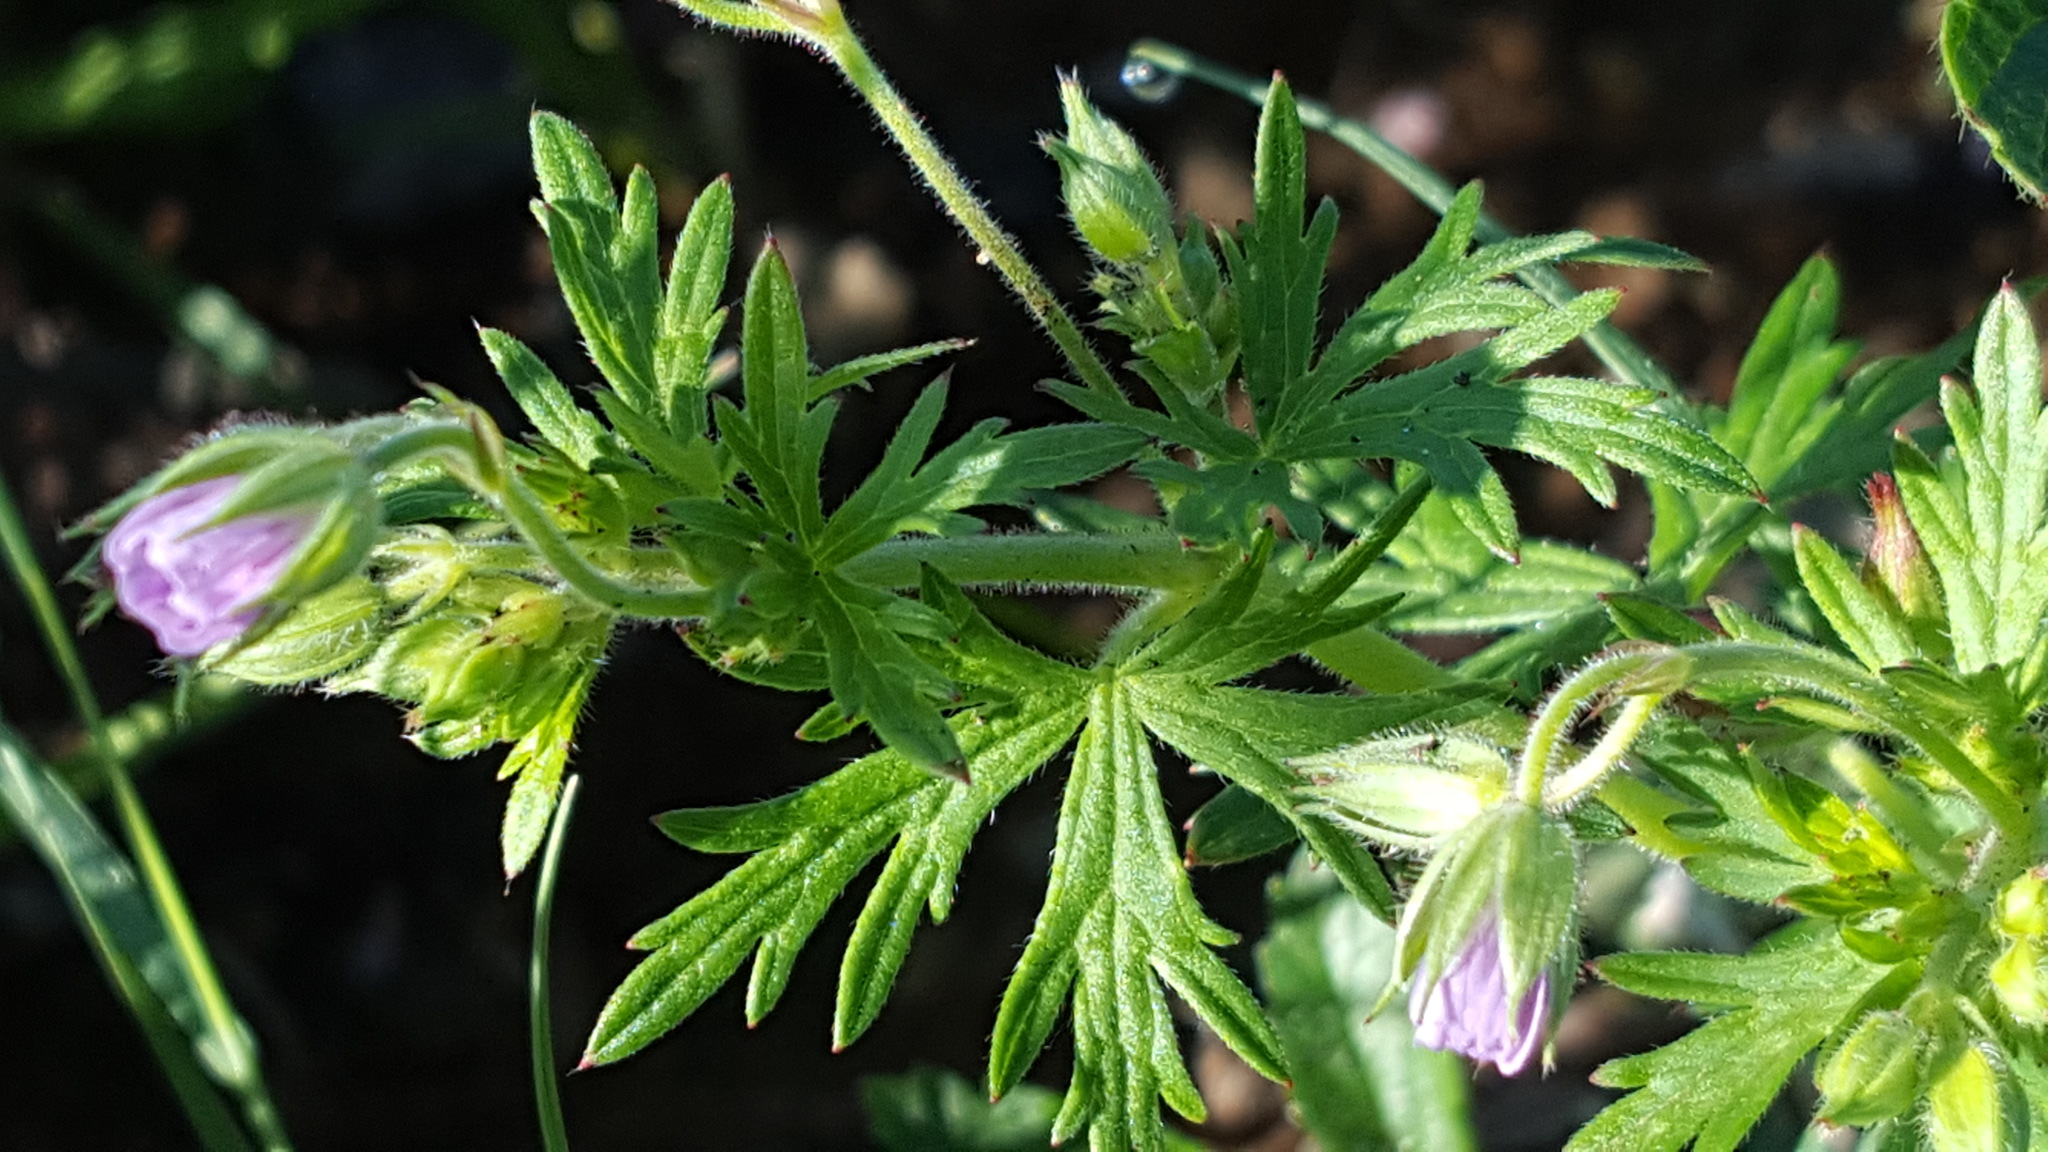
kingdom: Plantae
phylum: Tracheophyta
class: Magnoliopsida
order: Geraniales
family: Geraniaceae
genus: Geranium
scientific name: Geranium bicknellii
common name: Bicknell's cranesbill
